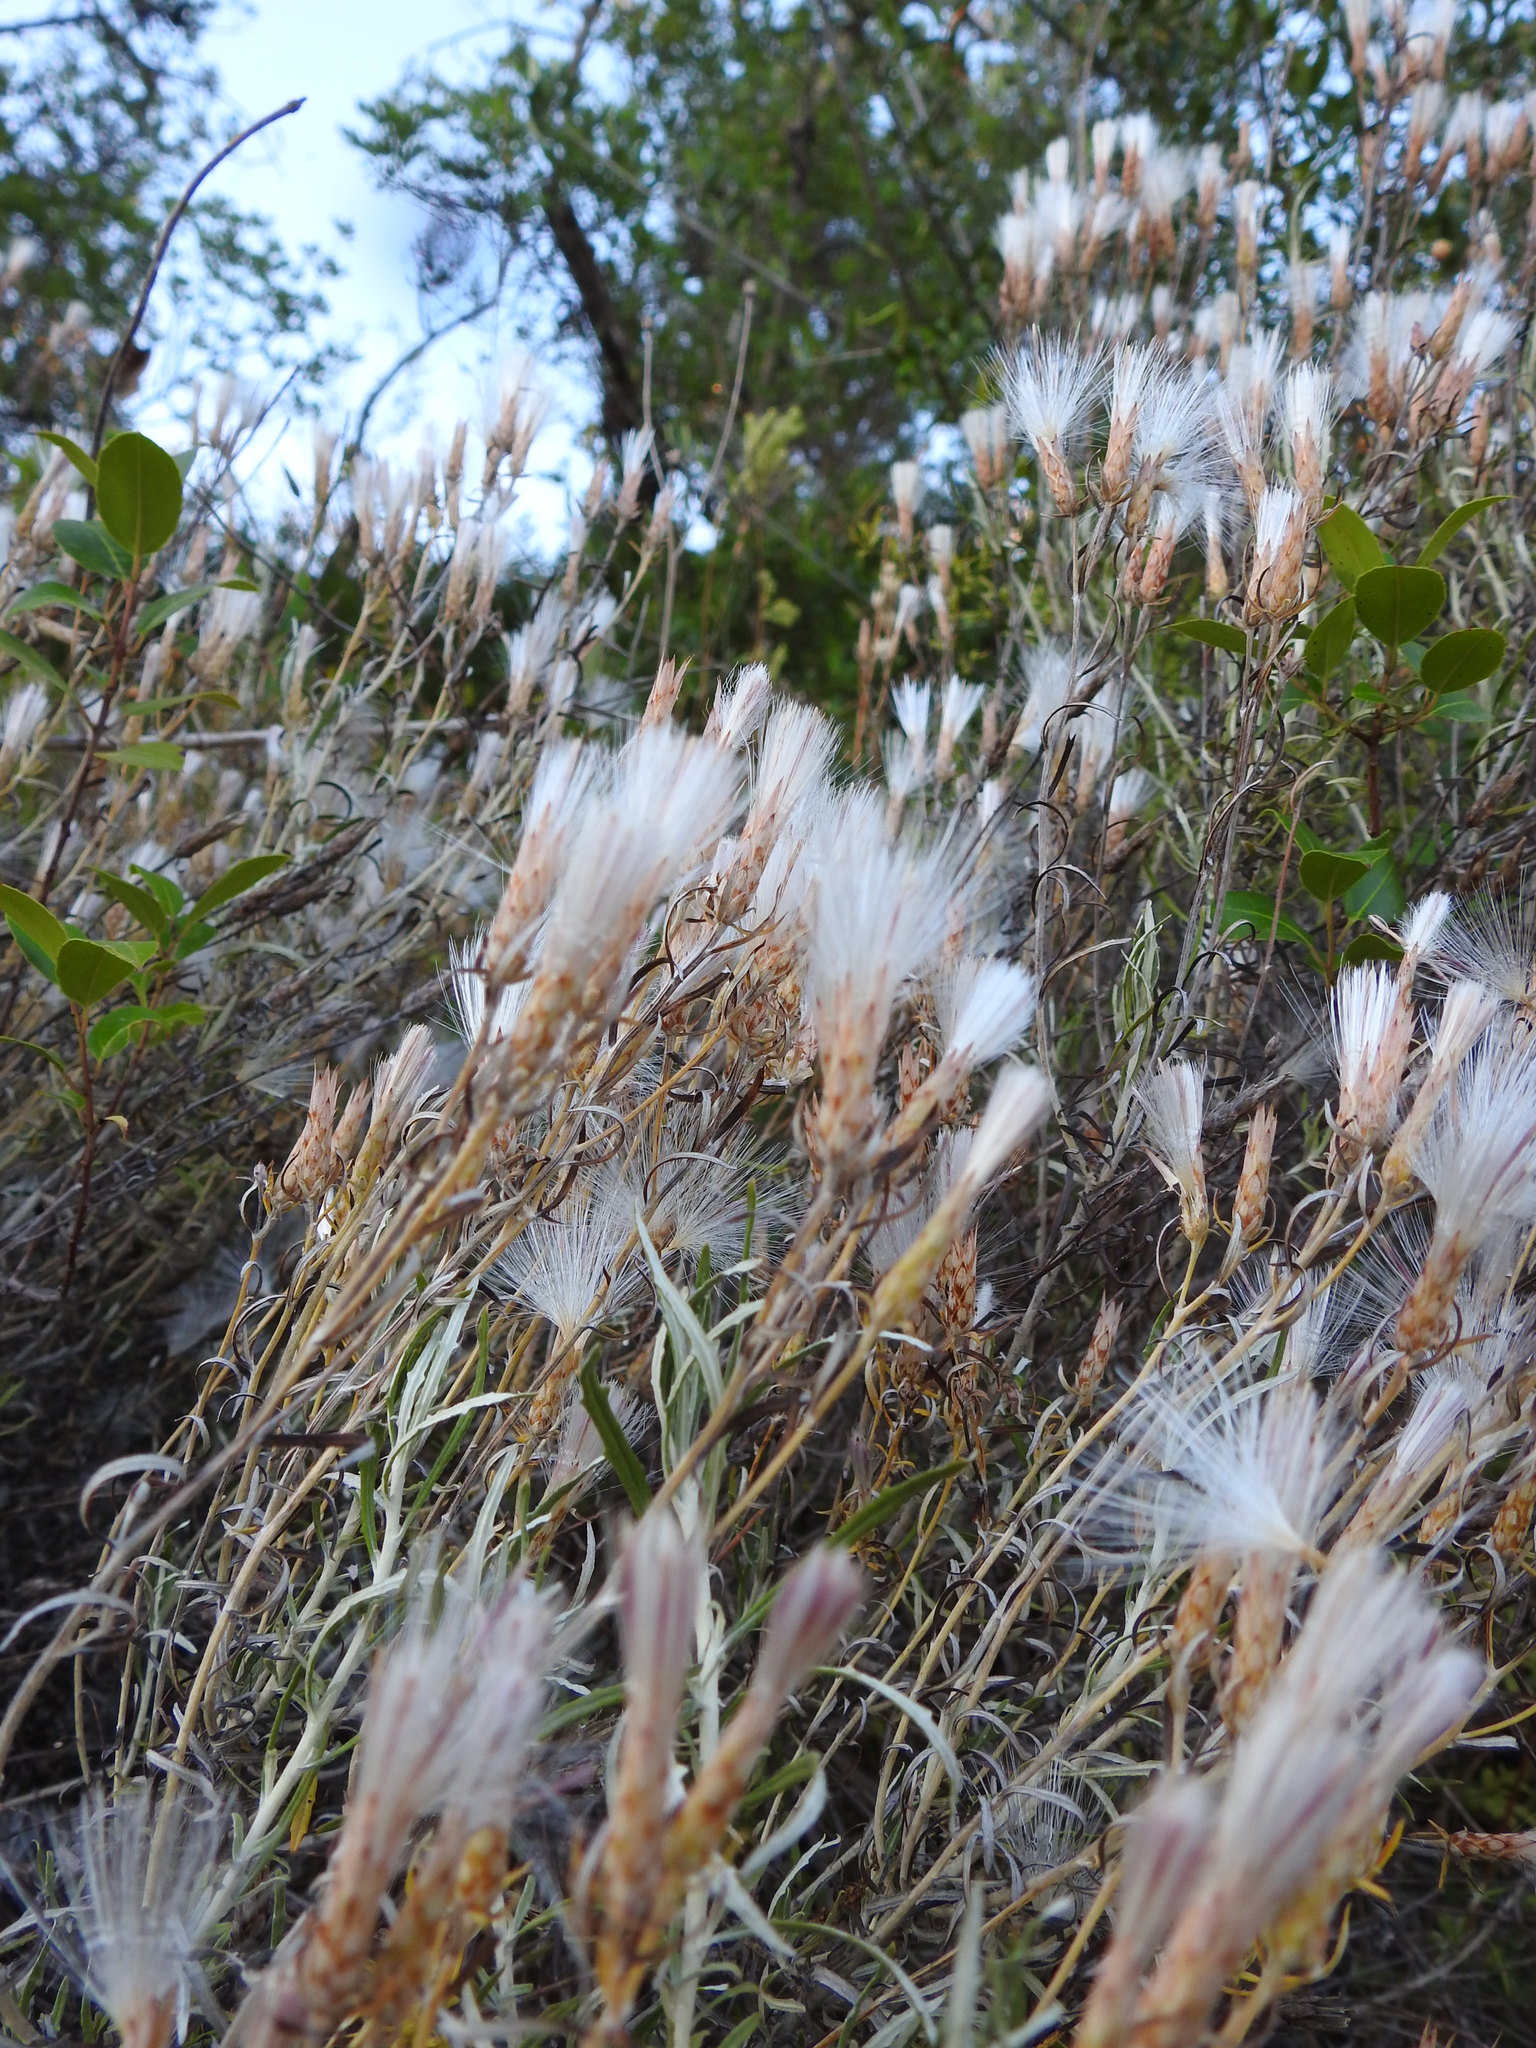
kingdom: Plantae
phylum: Tracheophyta
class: Magnoliopsida
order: Asterales
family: Asteraceae
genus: Staehelina
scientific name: Staehelina dubia
